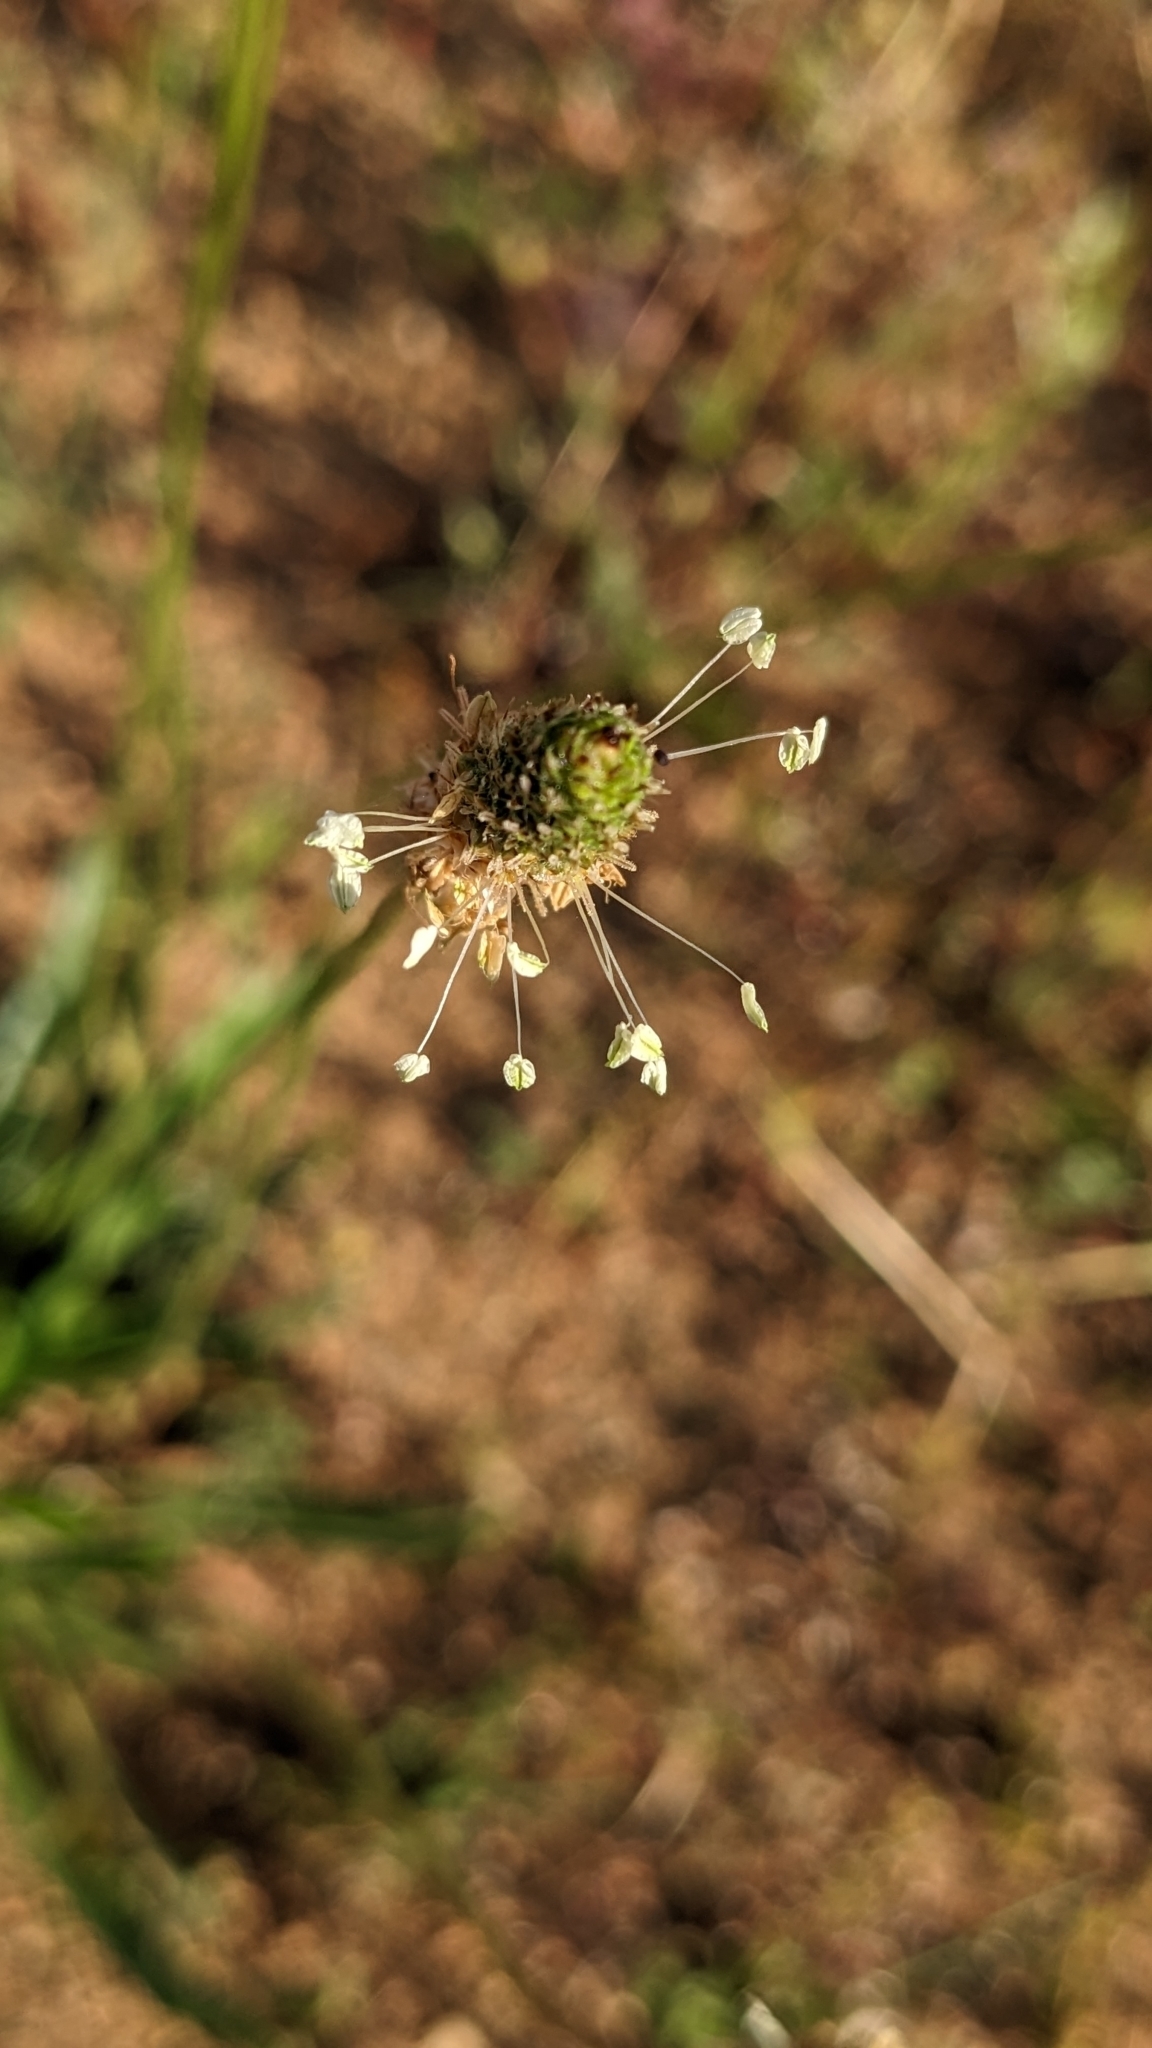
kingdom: Plantae
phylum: Tracheophyta
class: Magnoliopsida
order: Lamiales
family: Plantaginaceae
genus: Plantago
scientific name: Plantago lanceolata
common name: Ribwort plantain
